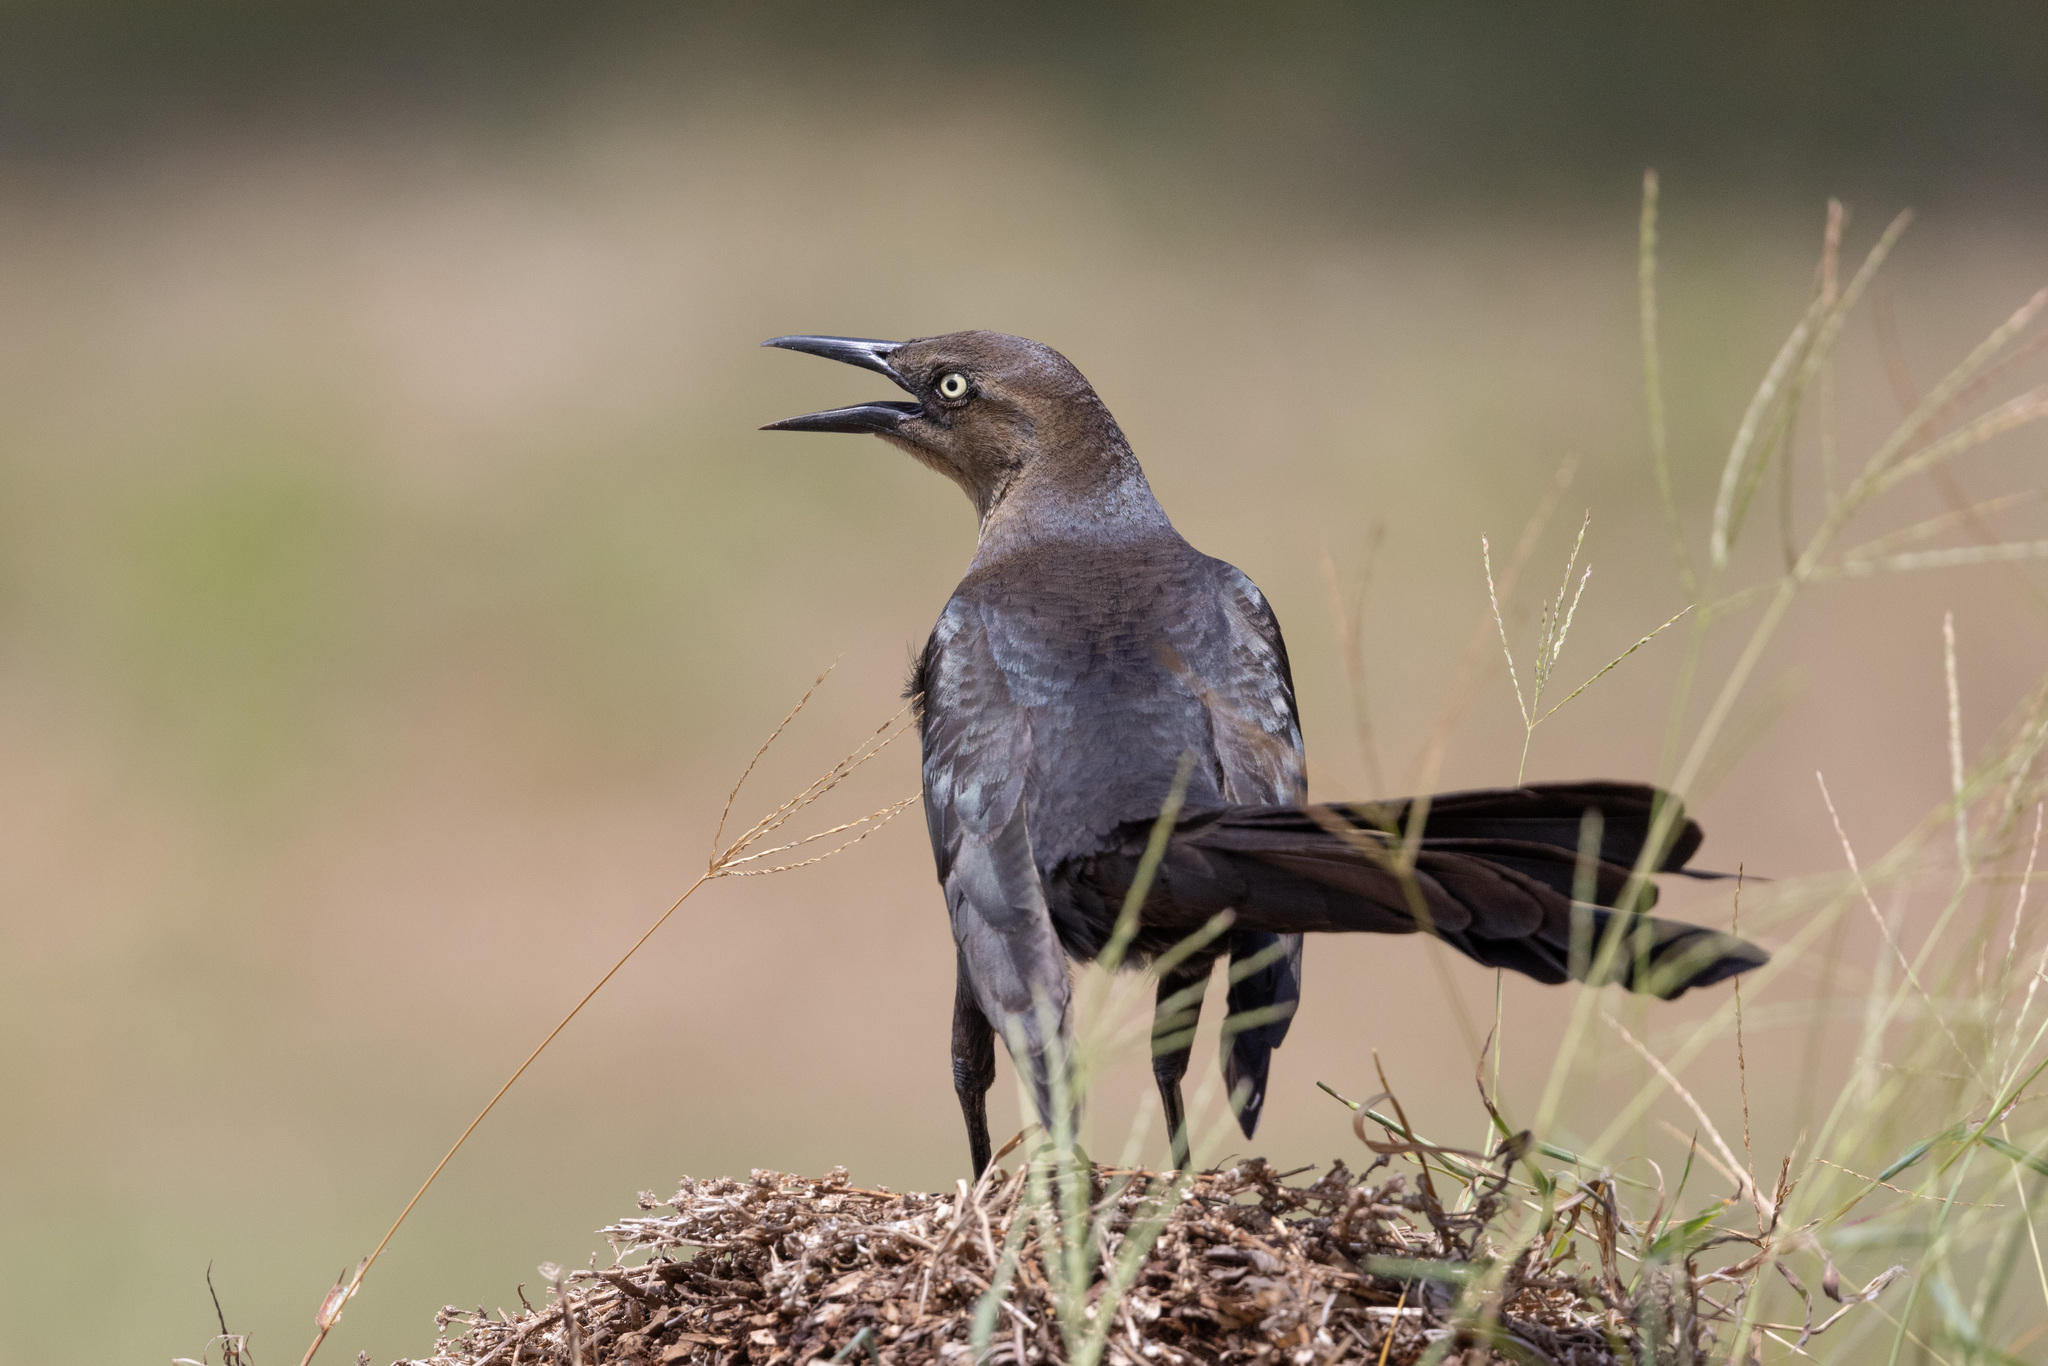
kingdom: Animalia
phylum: Chordata
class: Aves
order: Passeriformes
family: Icteridae
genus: Quiscalus
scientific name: Quiscalus mexicanus
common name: Great-tailed grackle
